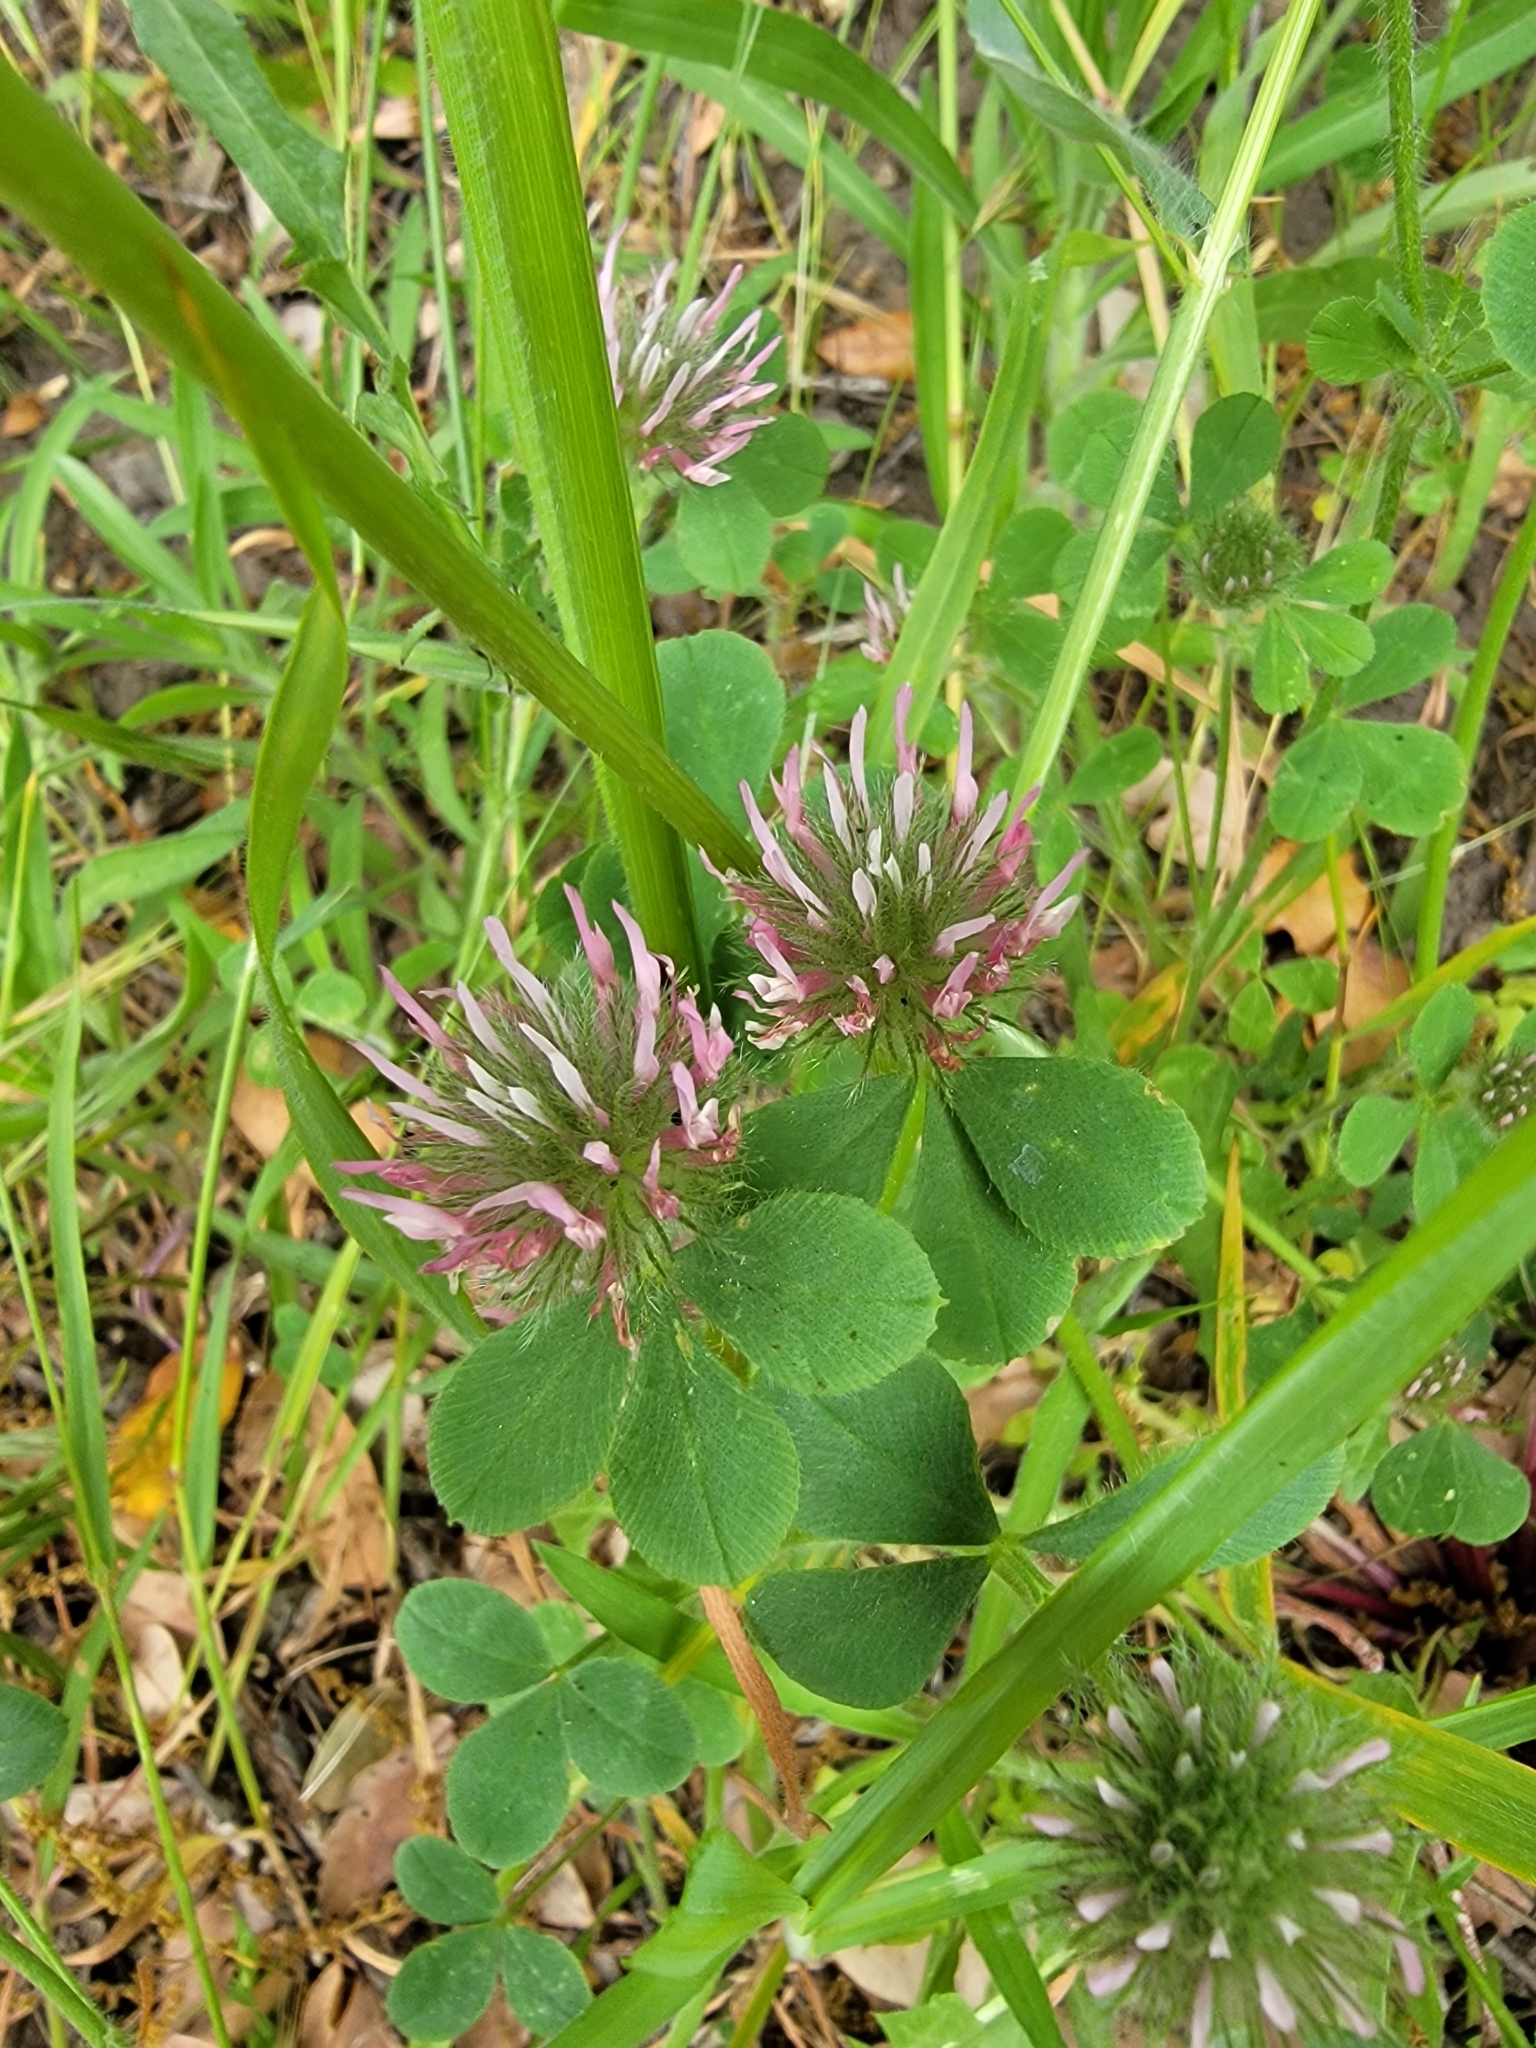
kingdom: Plantae
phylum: Tracheophyta
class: Magnoliopsida
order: Fabales
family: Fabaceae
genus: Trifolium
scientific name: Trifolium hirtum
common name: Rose clover
